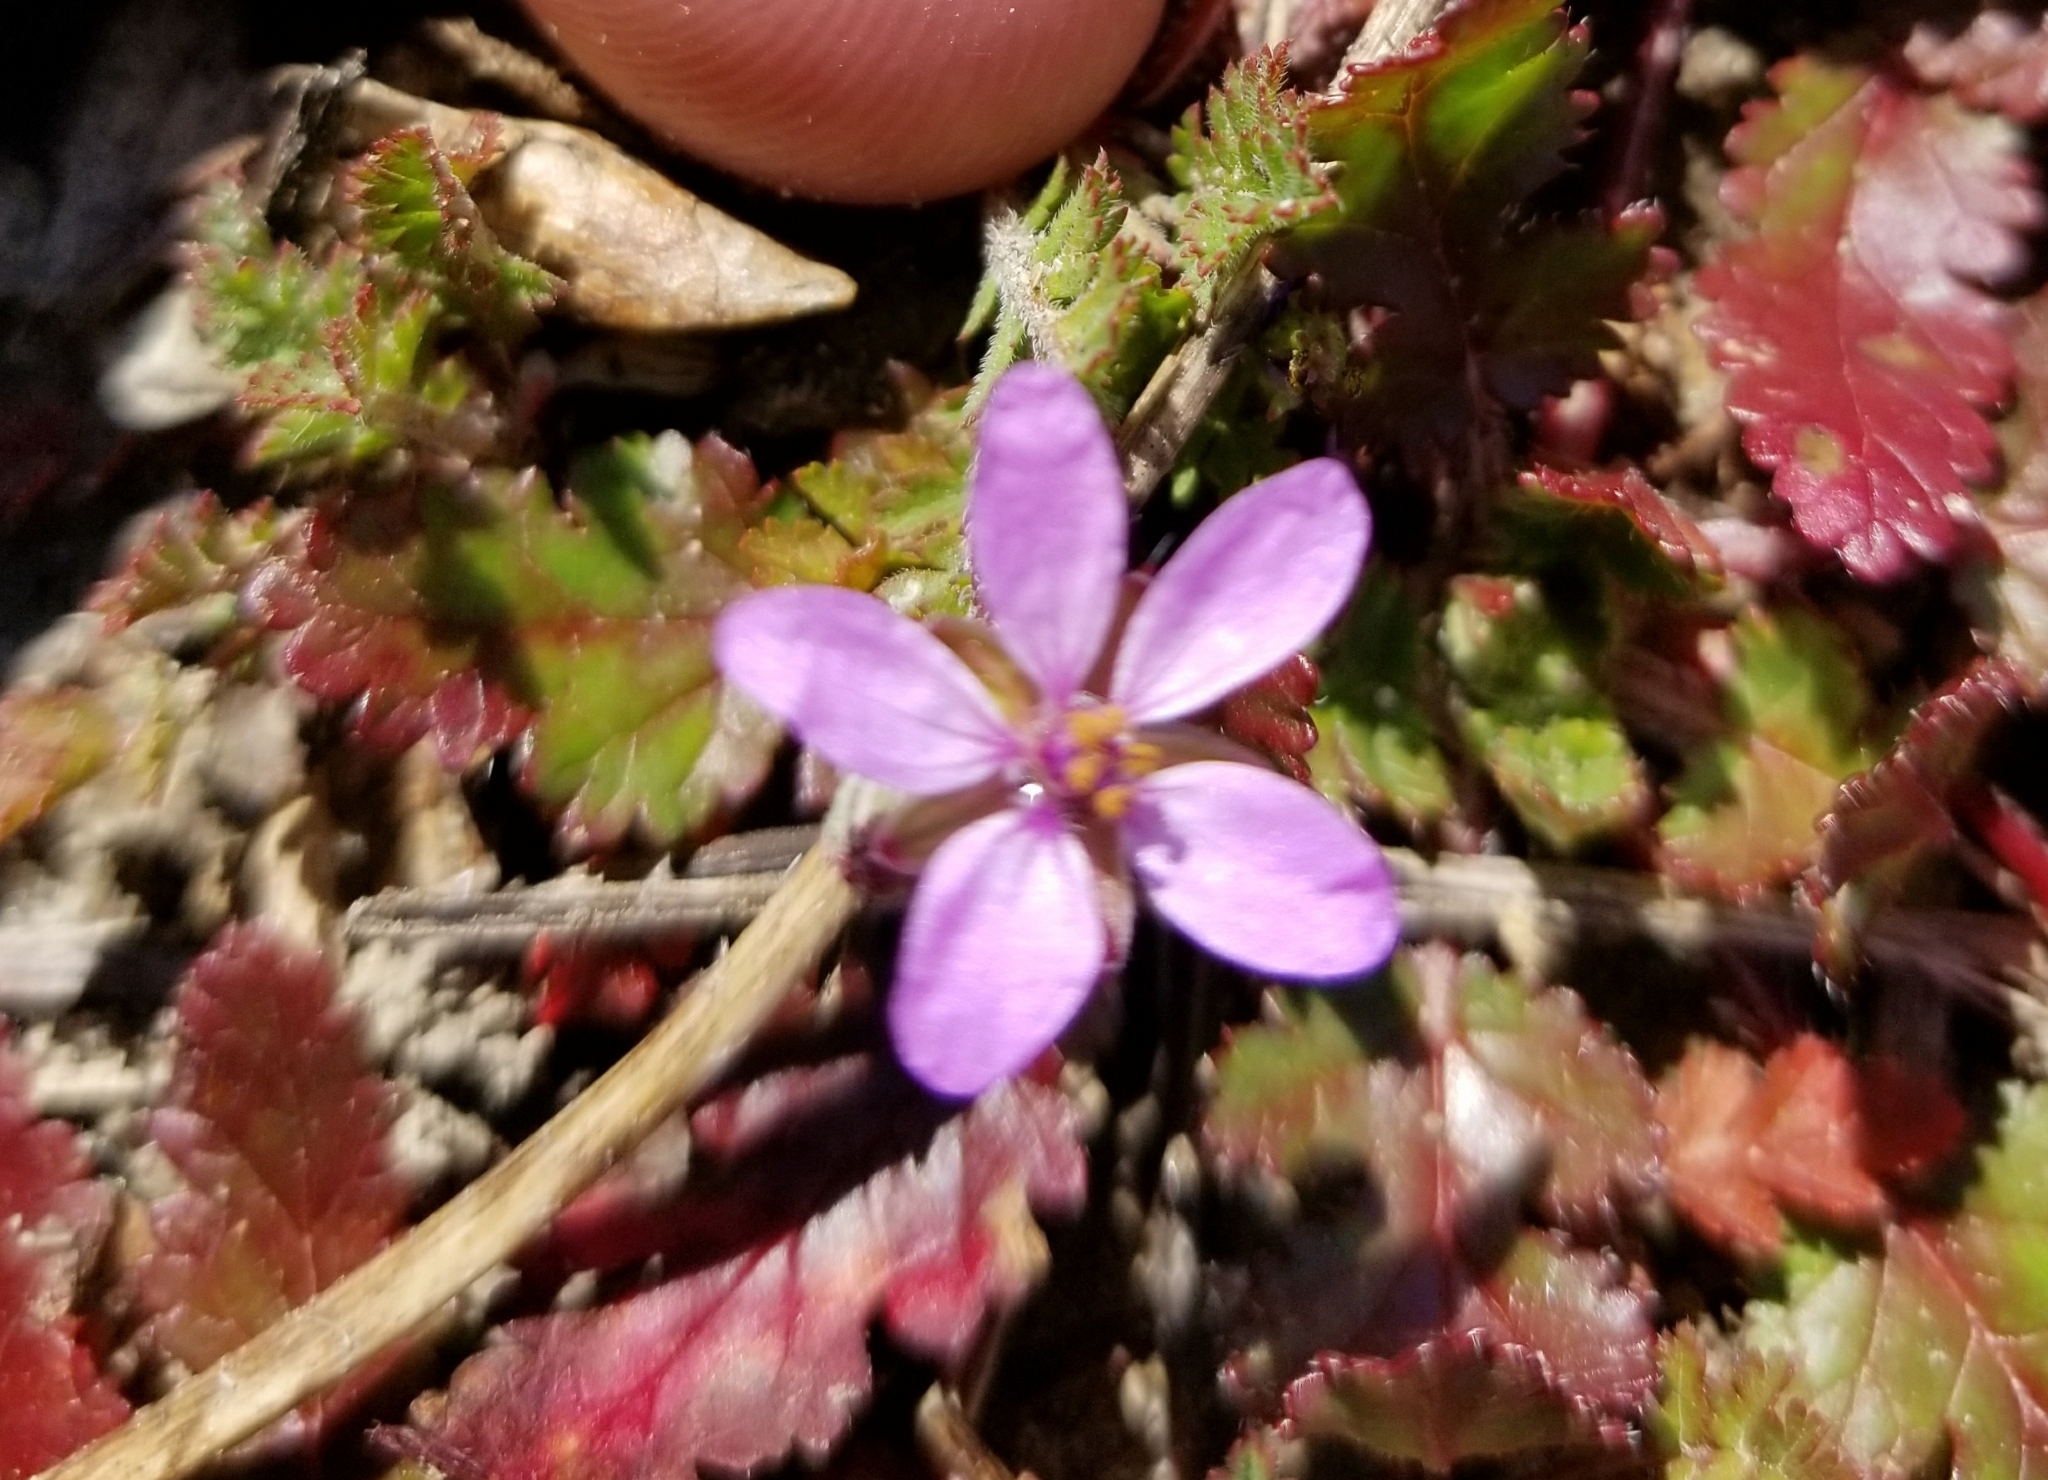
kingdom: Plantae
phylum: Tracheophyta
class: Magnoliopsida
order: Geraniales
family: Geraniaceae
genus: Erodium
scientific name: Erodium cicutarium
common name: Common stork's-bill
